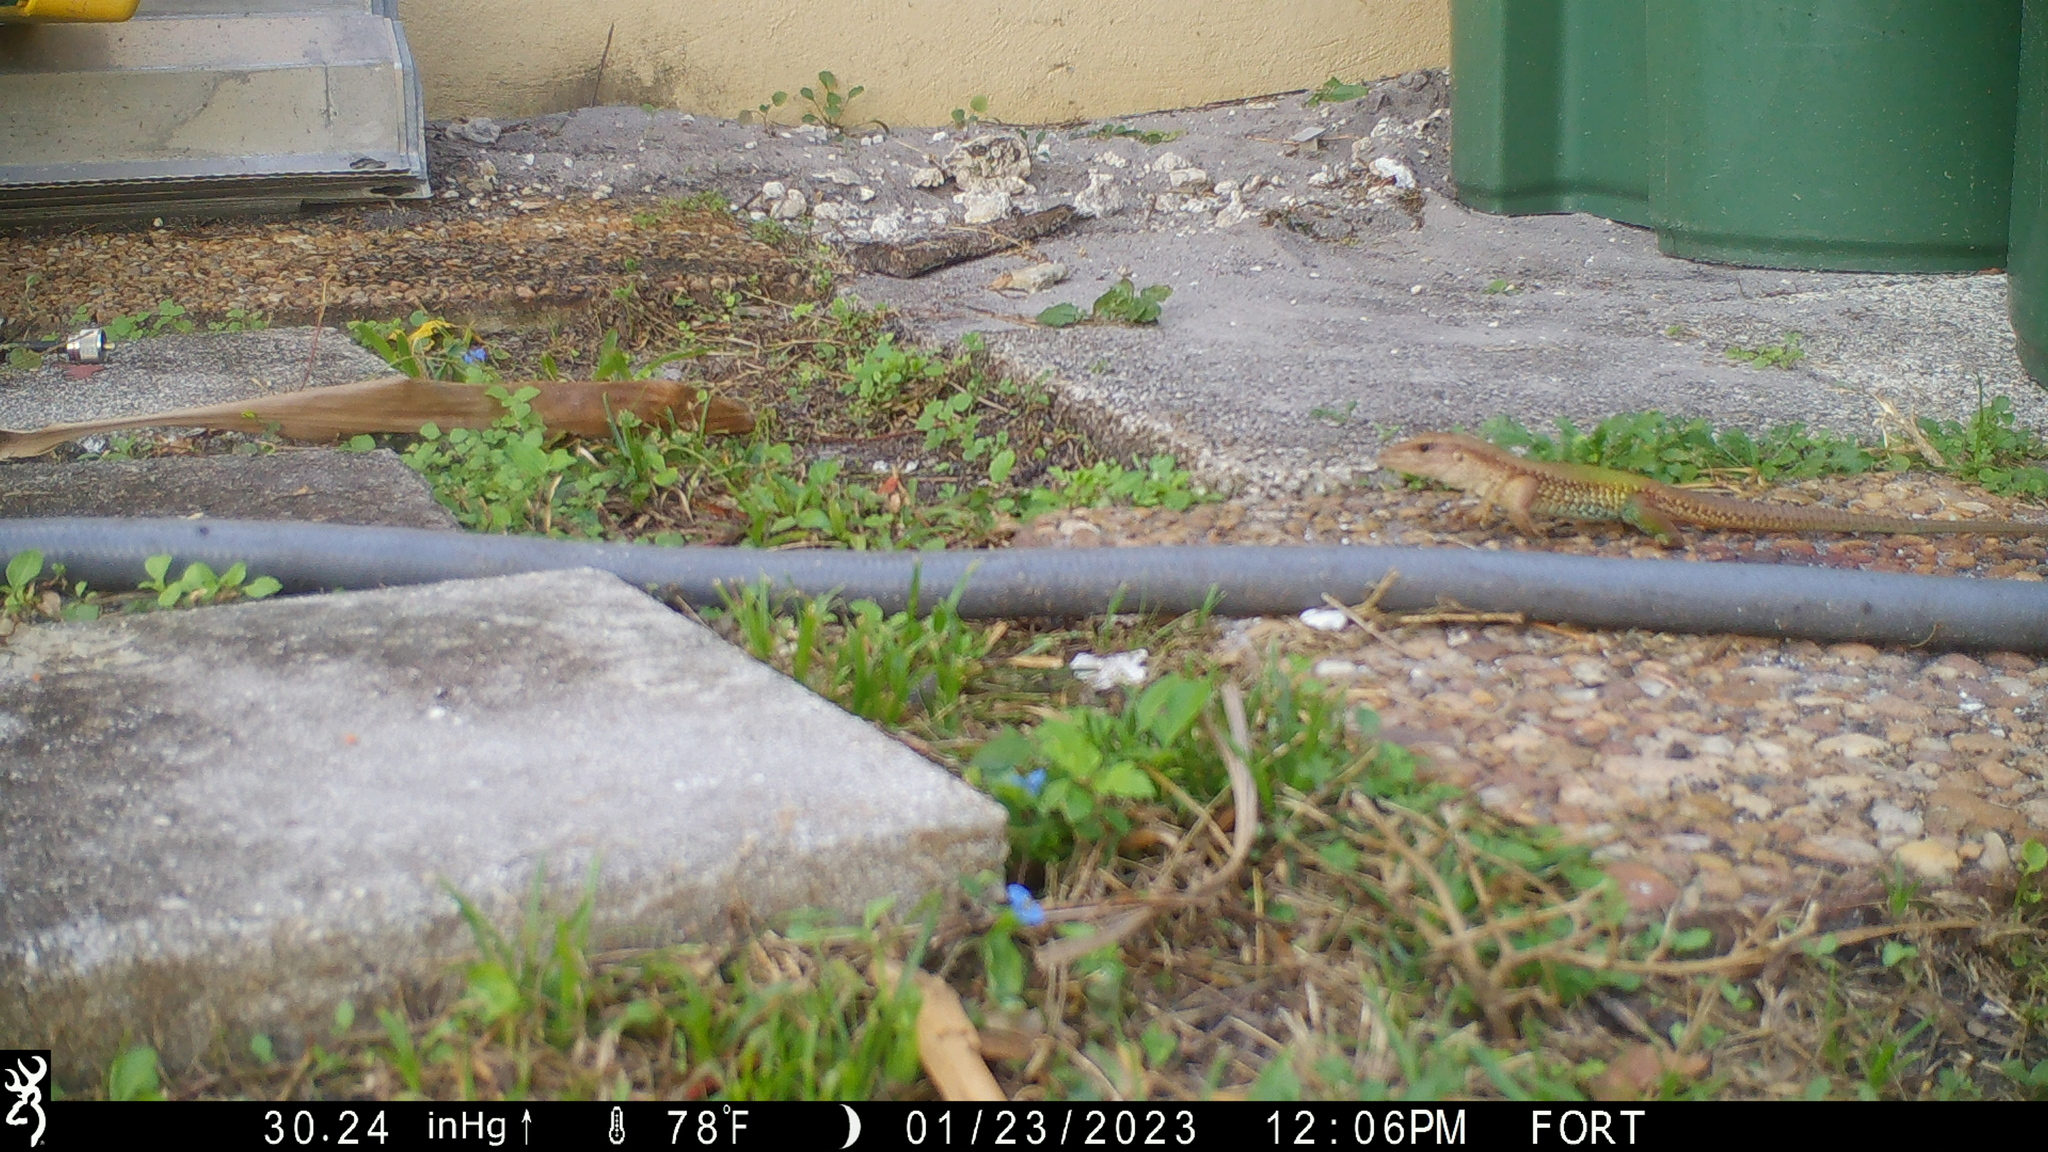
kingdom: Animalia
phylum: Chordata
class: Squamata
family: Teiidae
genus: Ameiva
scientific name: Ameiva ameiva
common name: Giant ameiva
